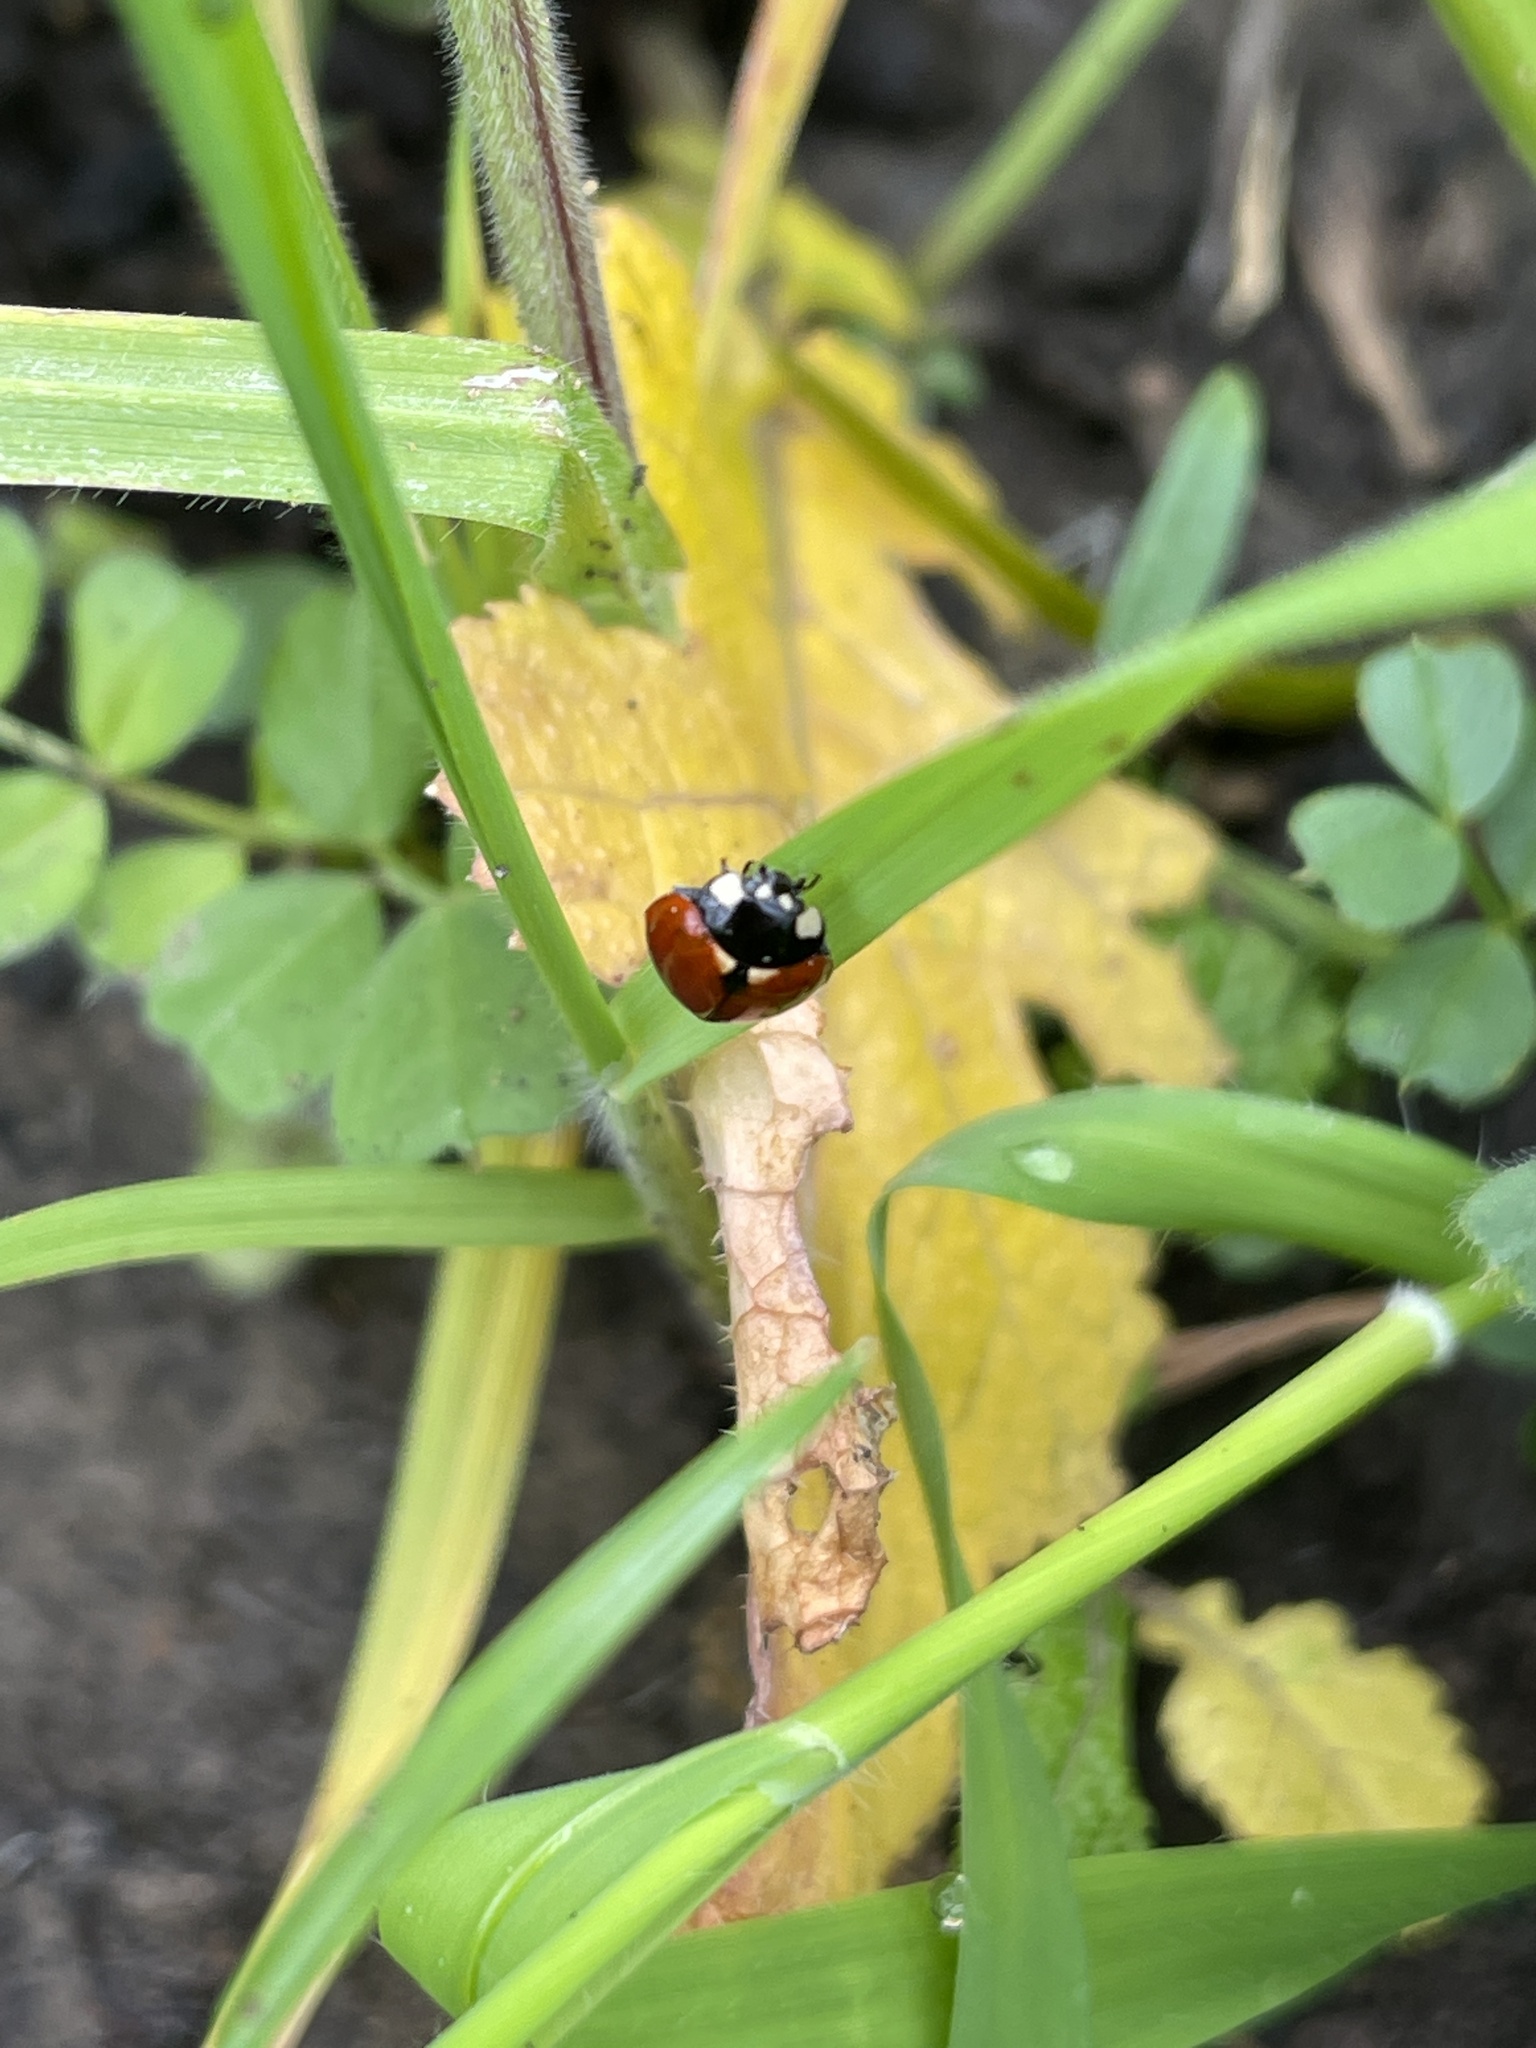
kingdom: Animalia
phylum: Arthropoda
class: Insecta
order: Coleoptera
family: Coccinellidae
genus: Coccinella
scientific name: Coccinella californica
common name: Lady beetle
